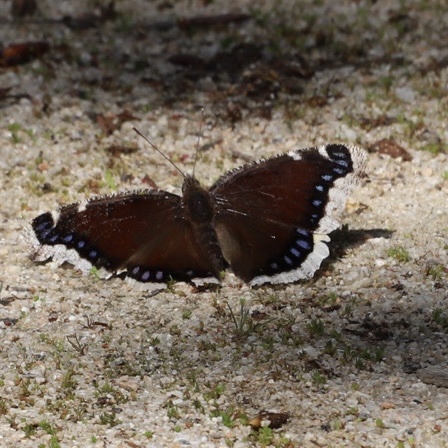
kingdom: Animalia
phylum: Arthropoda
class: Insecta
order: Lepidoptera
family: Nymphalidae
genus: Nymphalis
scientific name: Nymphalis antiopa
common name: Camberwell beauty
